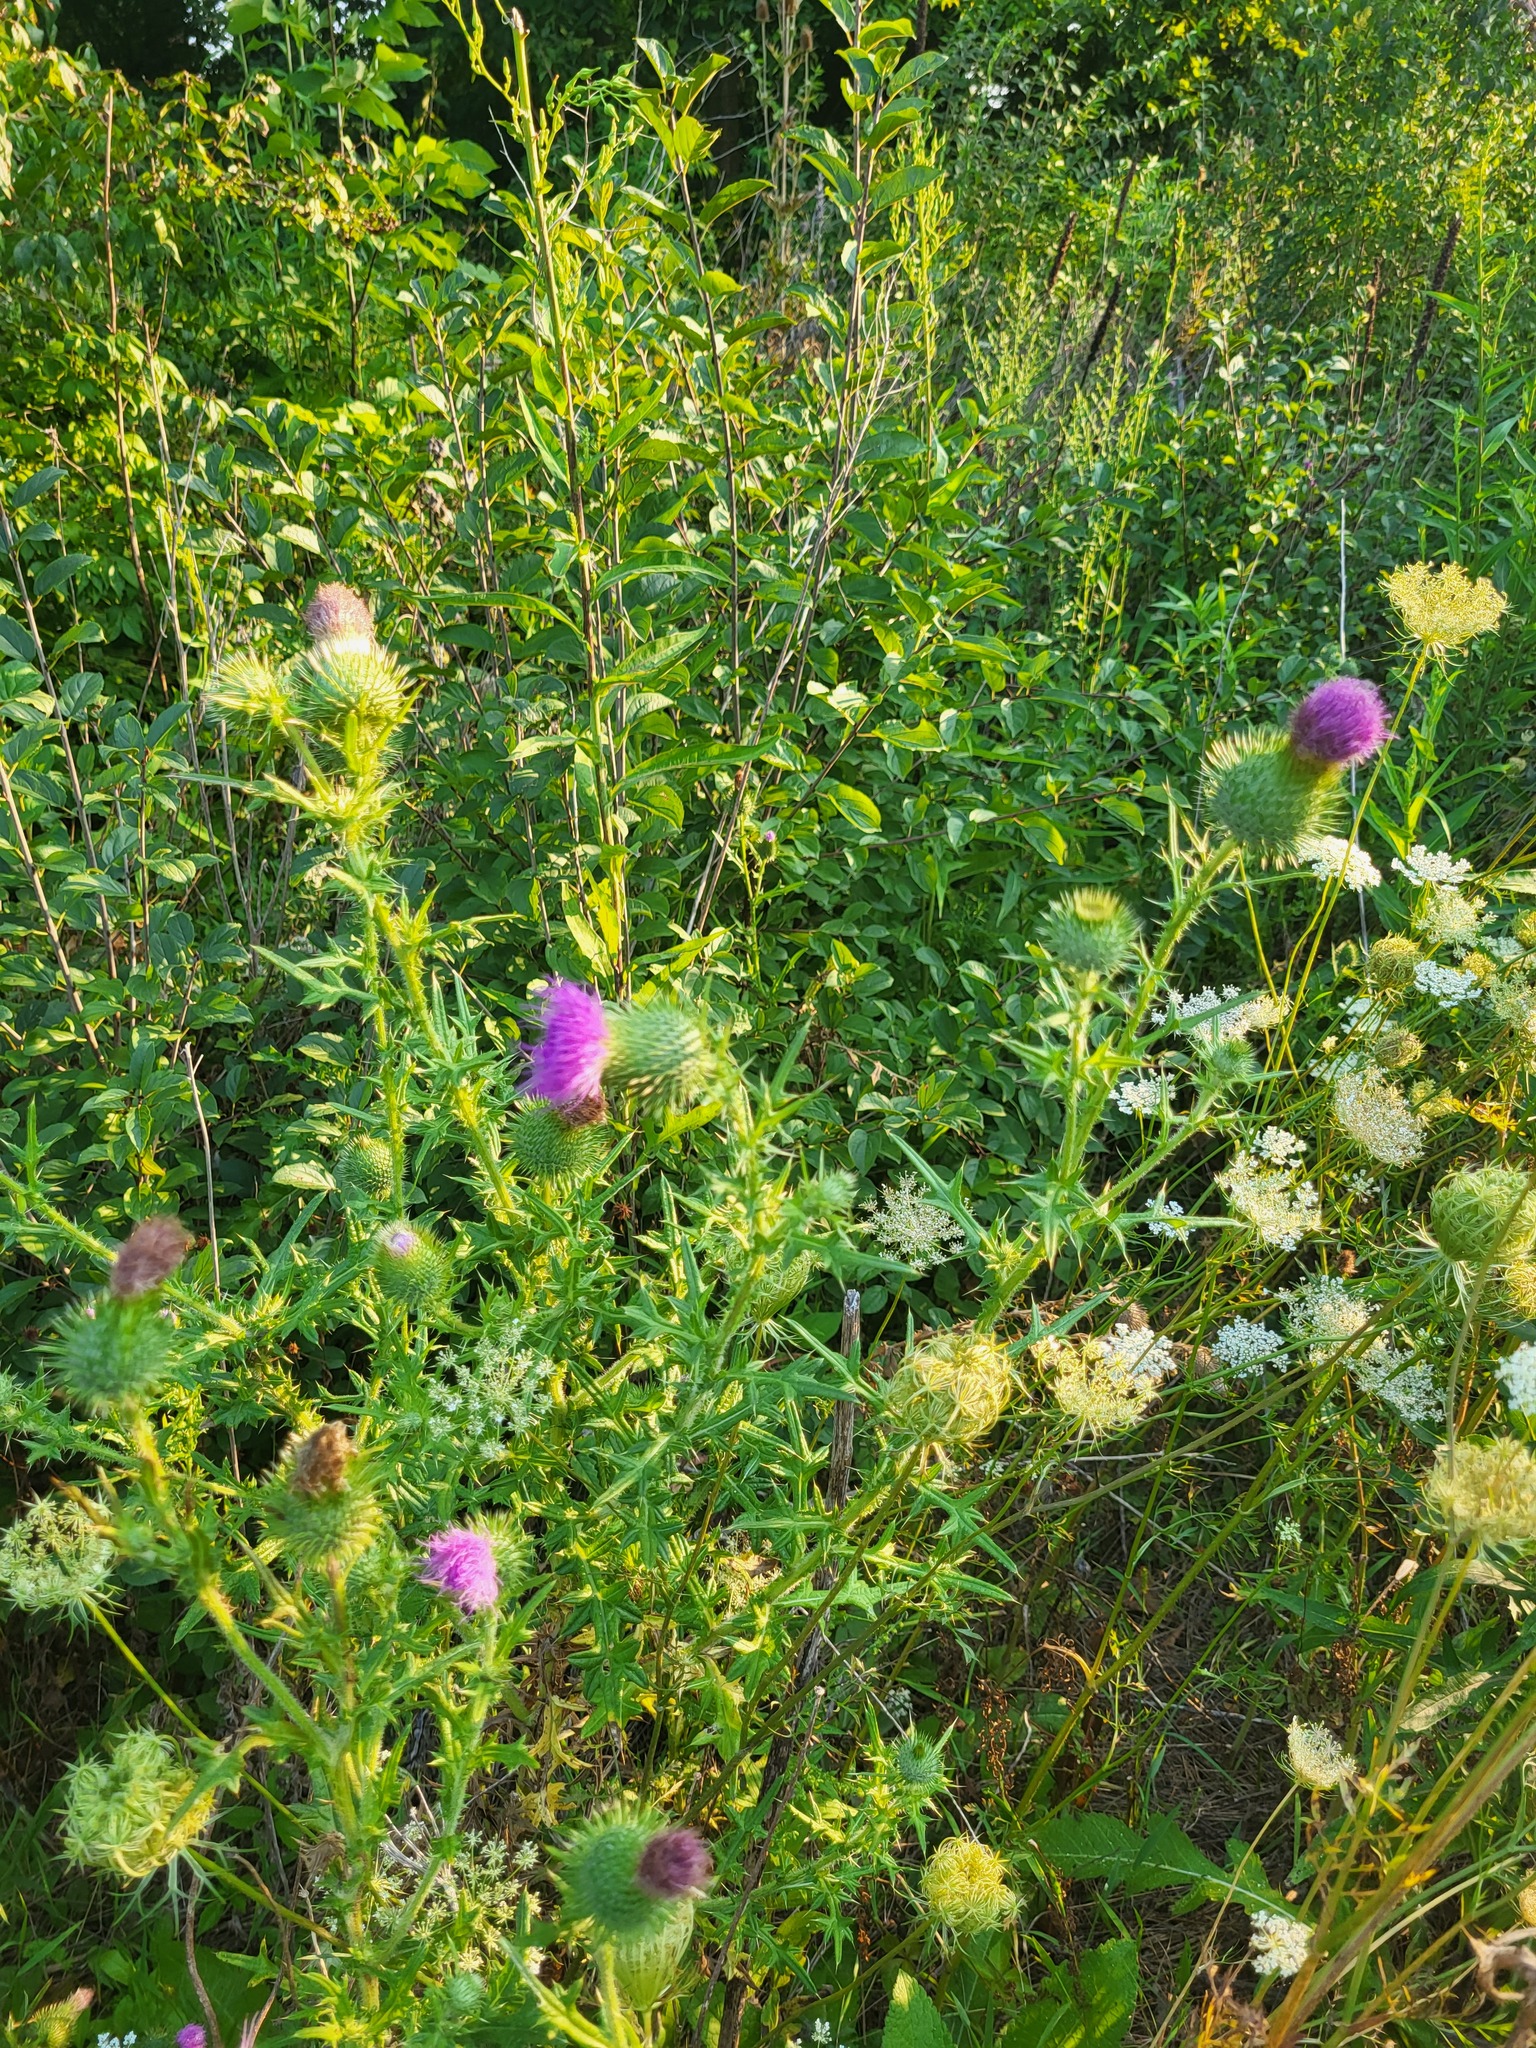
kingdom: Plantae
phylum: Tracheophyta
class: Magnoliopsida
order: Asterales
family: Asteraceae
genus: Cirsium
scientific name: Cirsium vulgare
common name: Bull thistle
